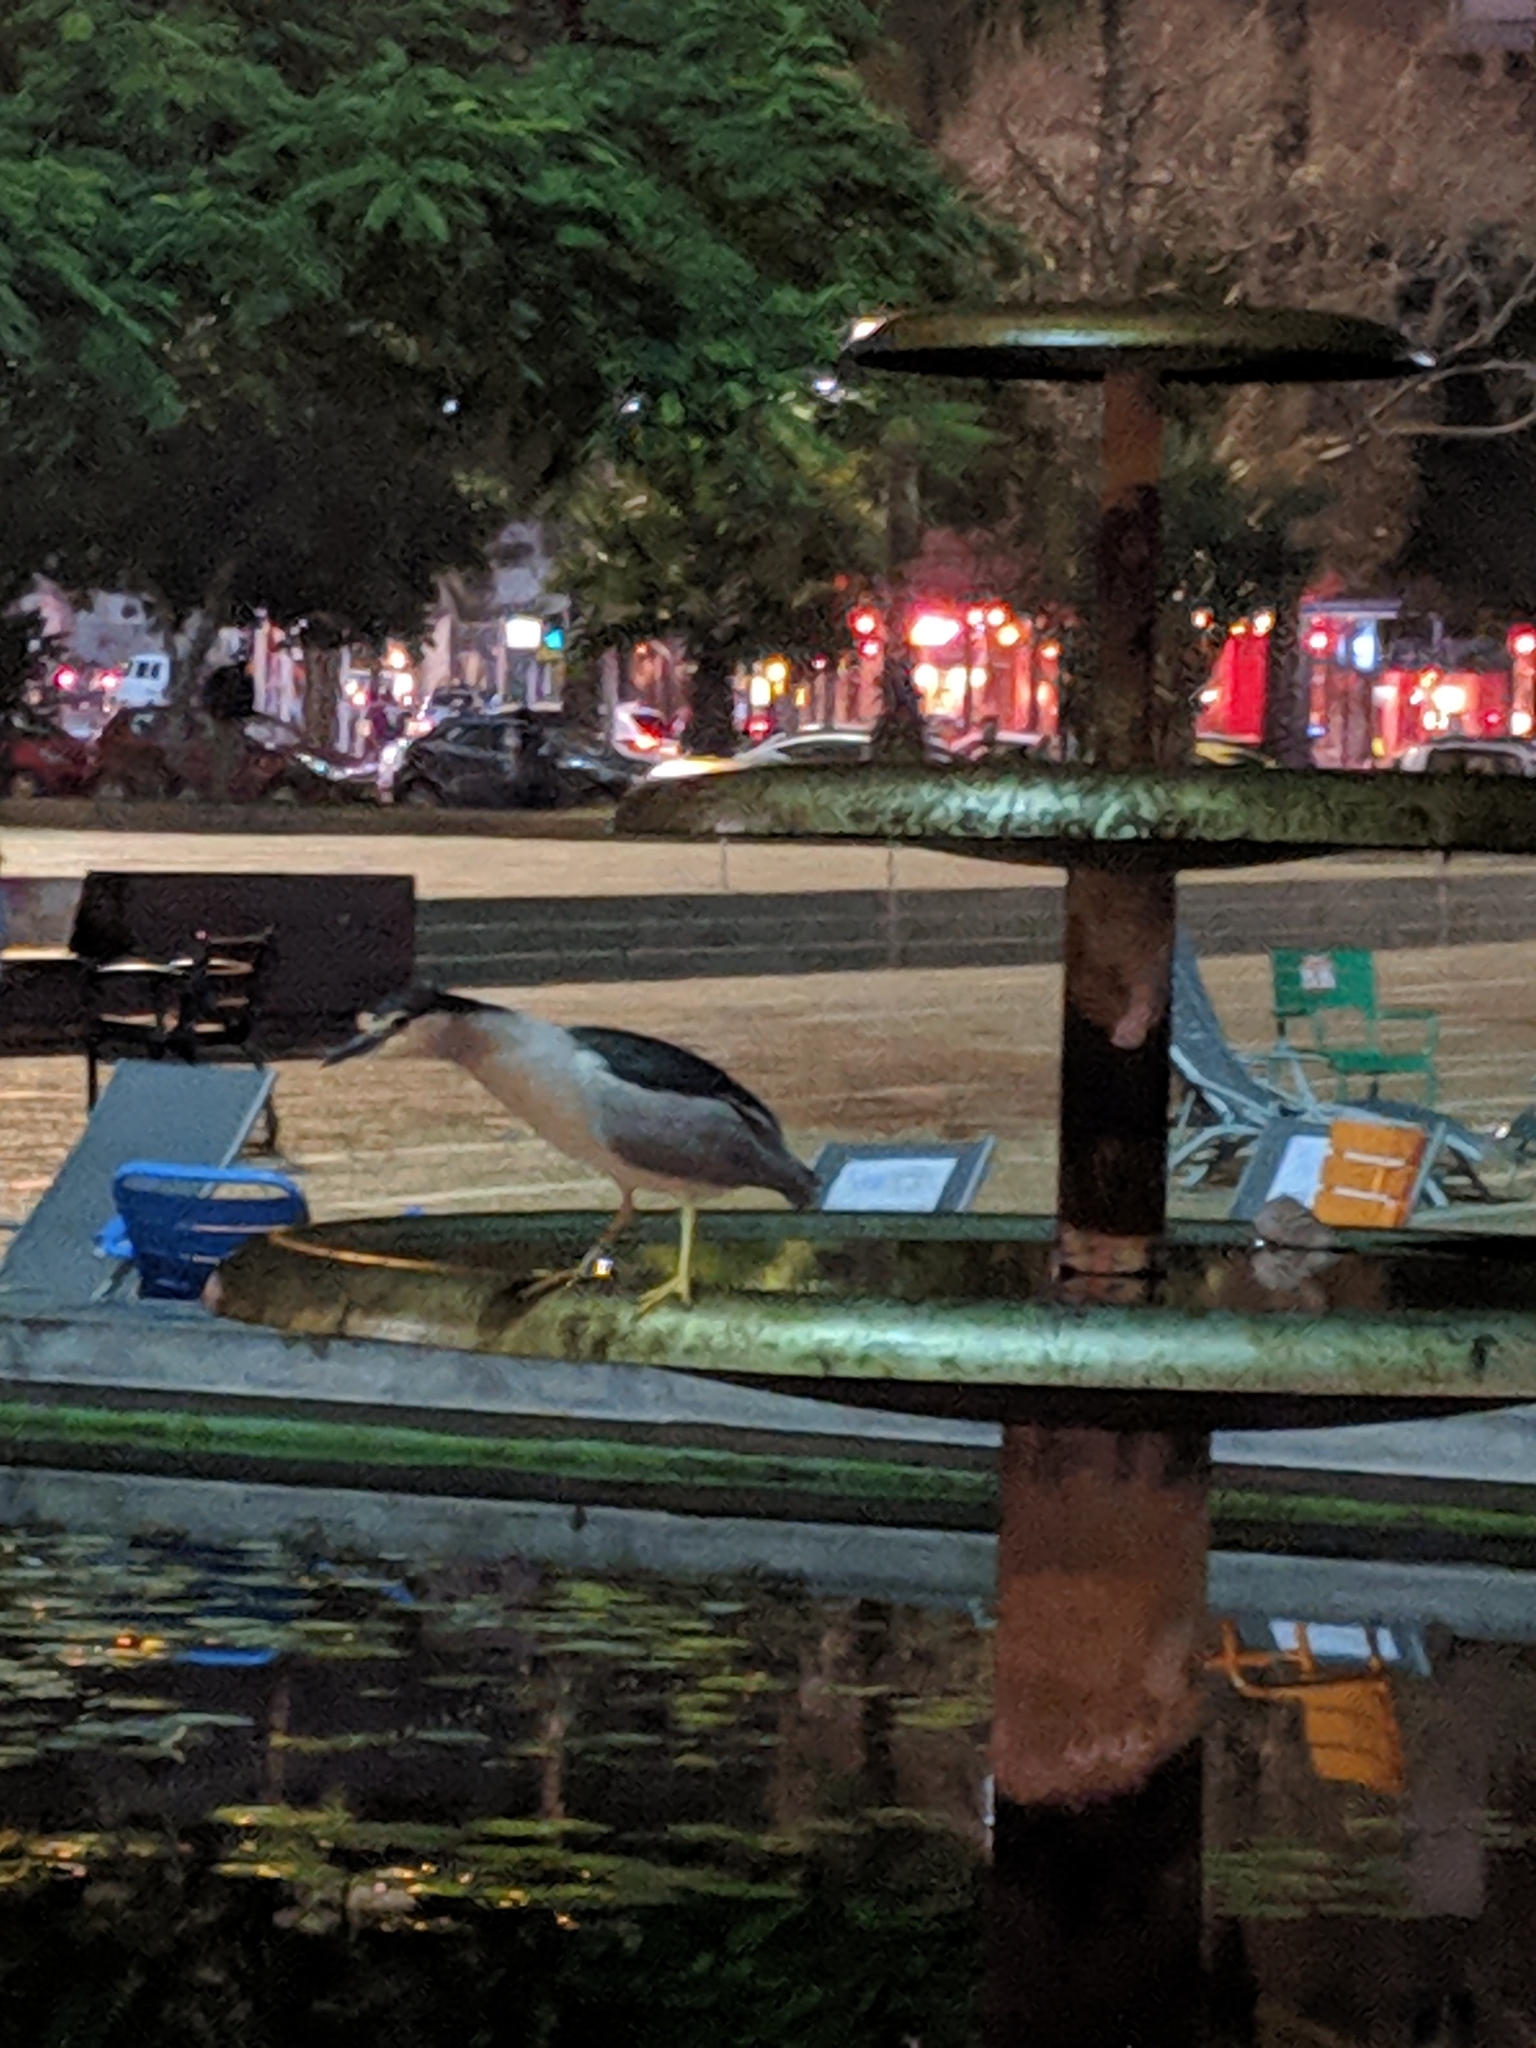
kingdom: Animalia
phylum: Chordata
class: Aves
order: Pelecaniformes
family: Ardeidae
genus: Nycticorax
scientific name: Nycticorax nycticorax
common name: Black-crowned night heron
